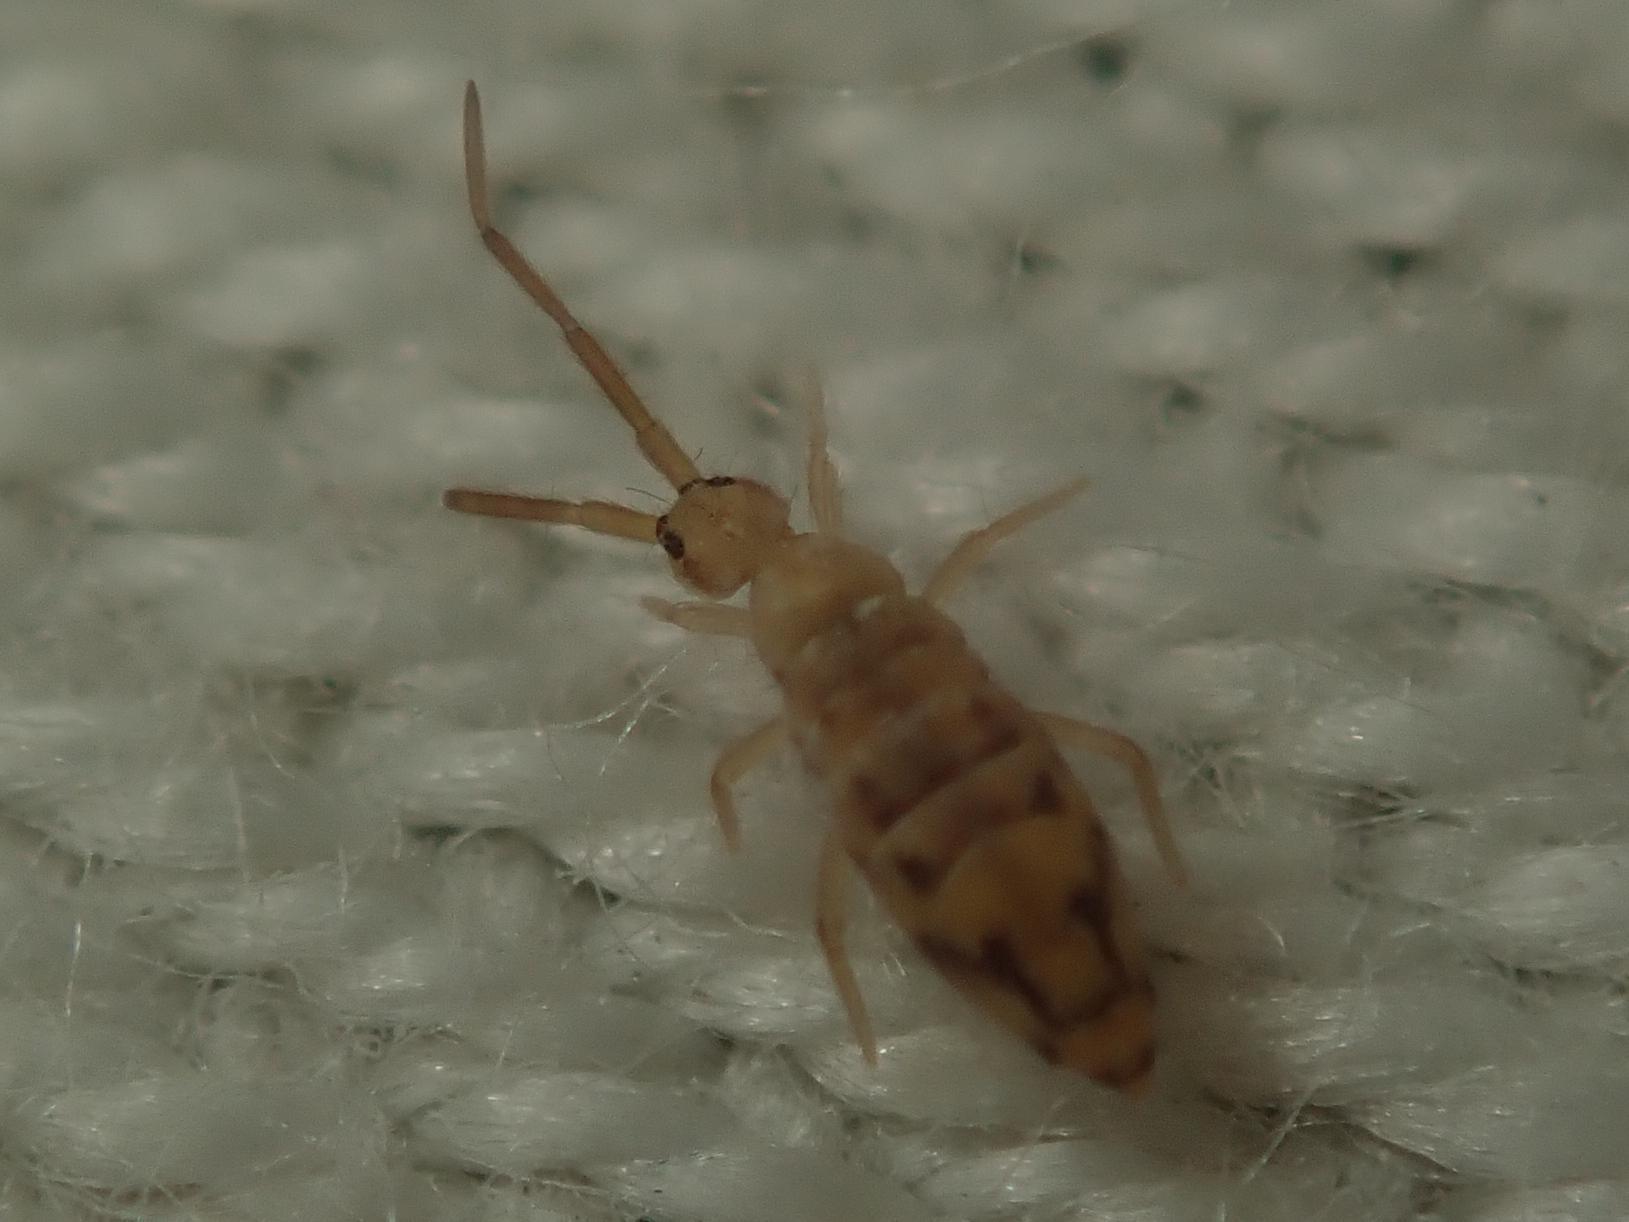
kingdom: Animalia
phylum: Arthropoda
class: Collembola
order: Entomobryomorpha
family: Entomobryidae
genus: Entomobrya
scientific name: Entomobrya nivalis
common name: Cosmopolitan springtail
